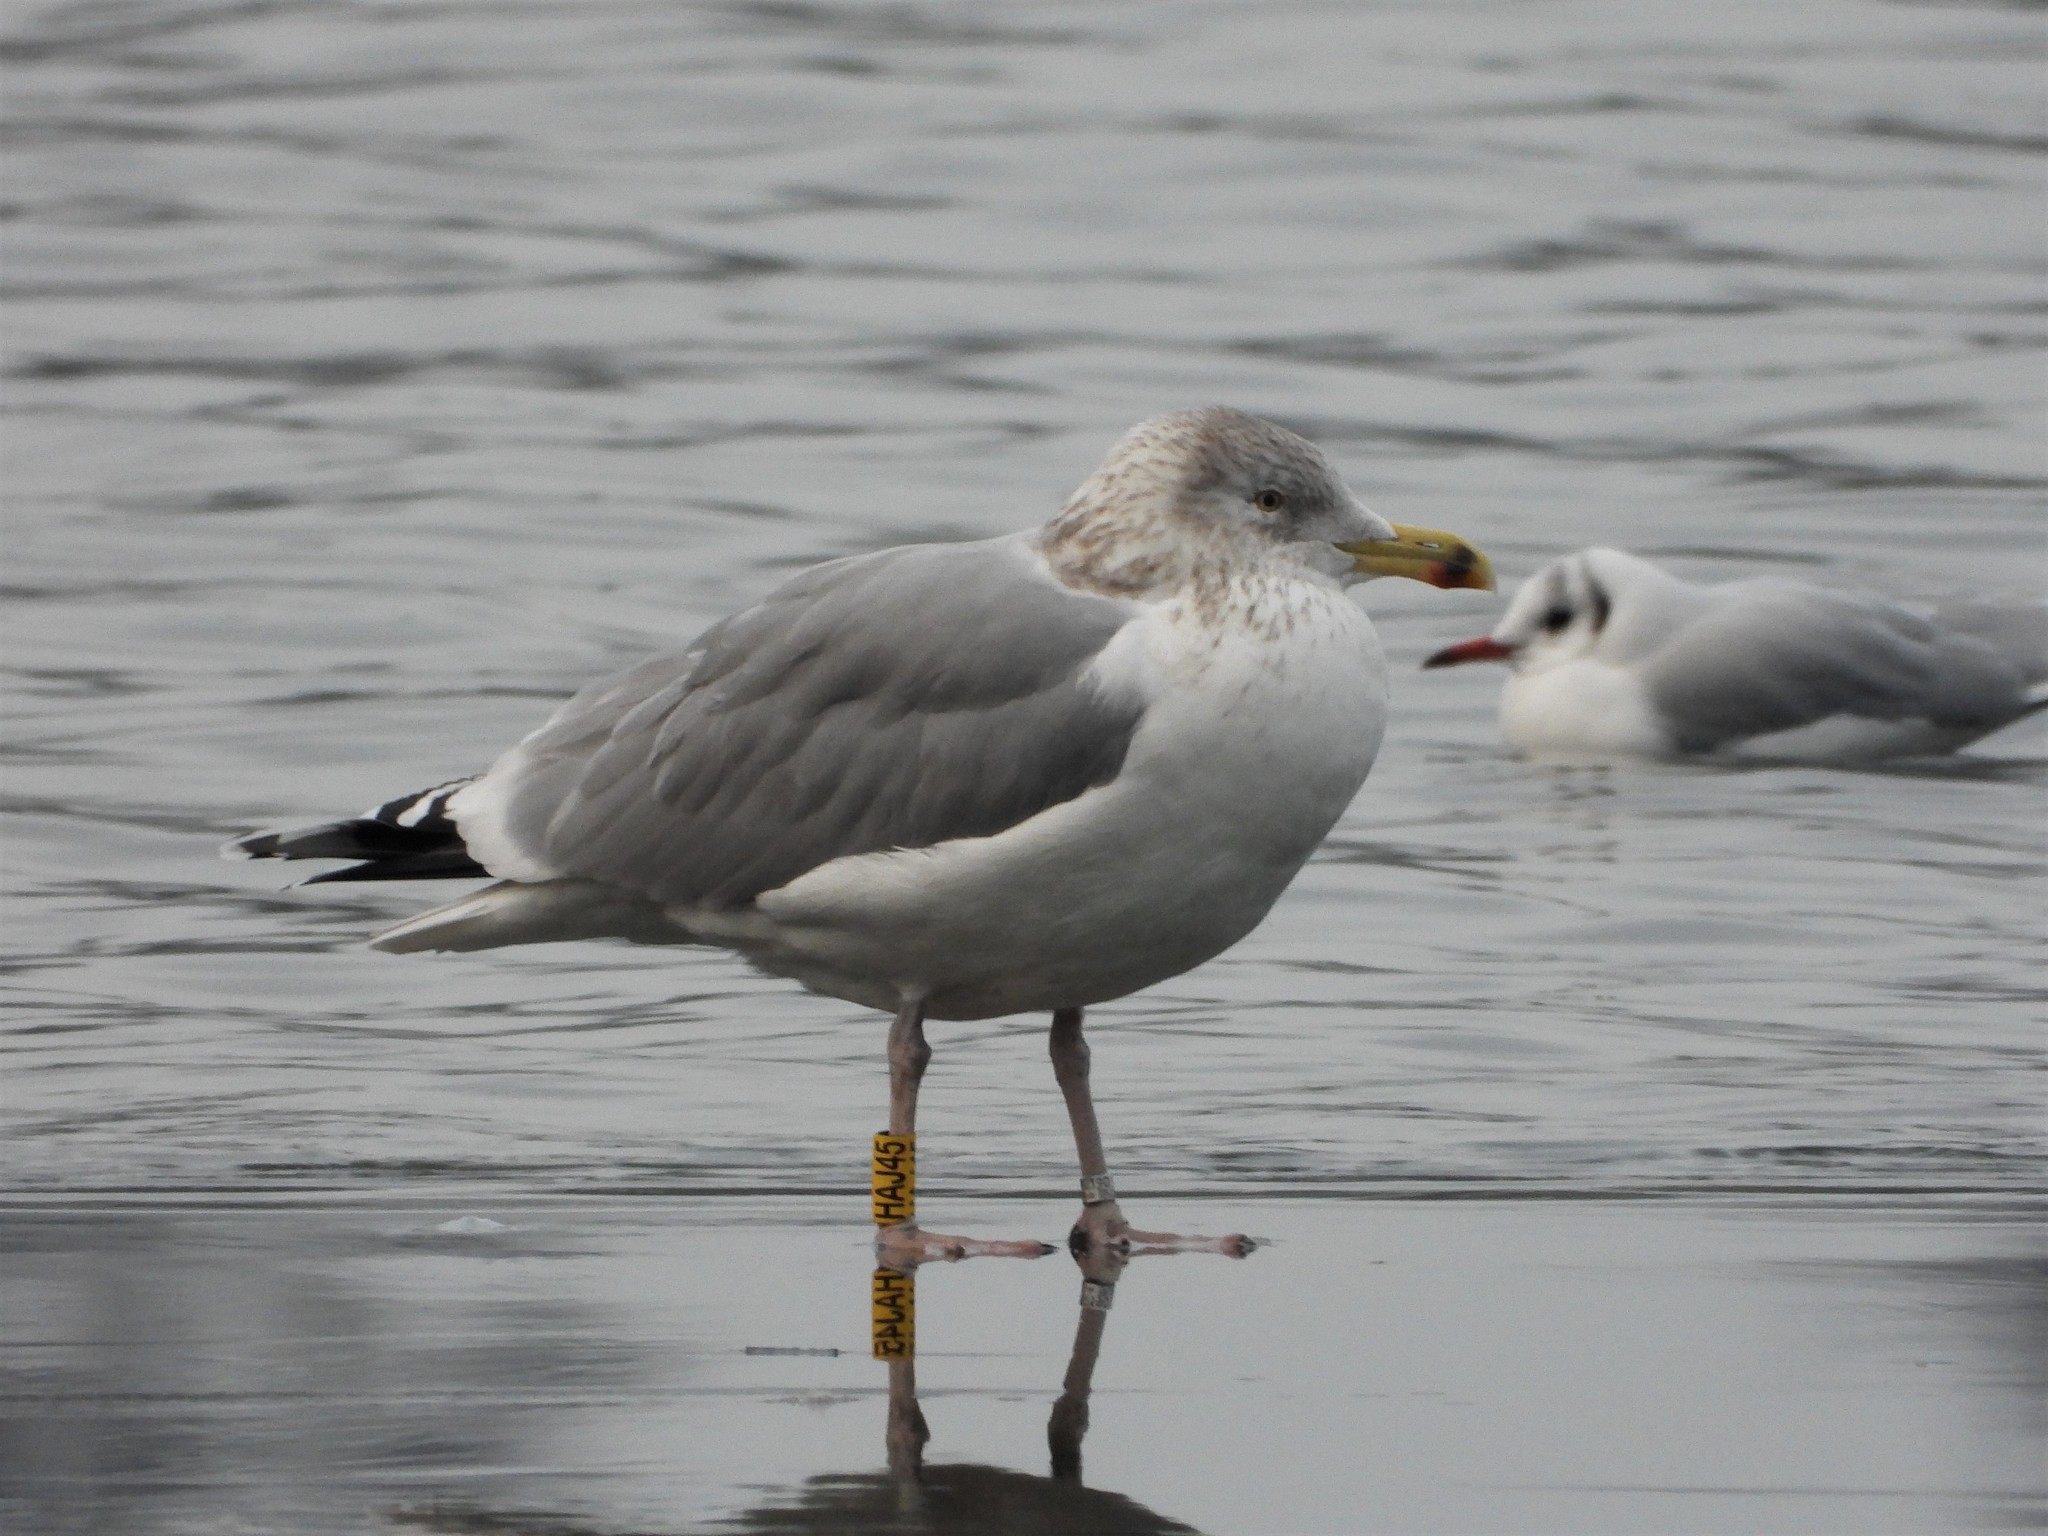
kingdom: Animalia
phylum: Chordata
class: Aves
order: Charadriiformes
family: Laridae
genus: Larus
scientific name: Larus argentatus
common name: Herring gull
